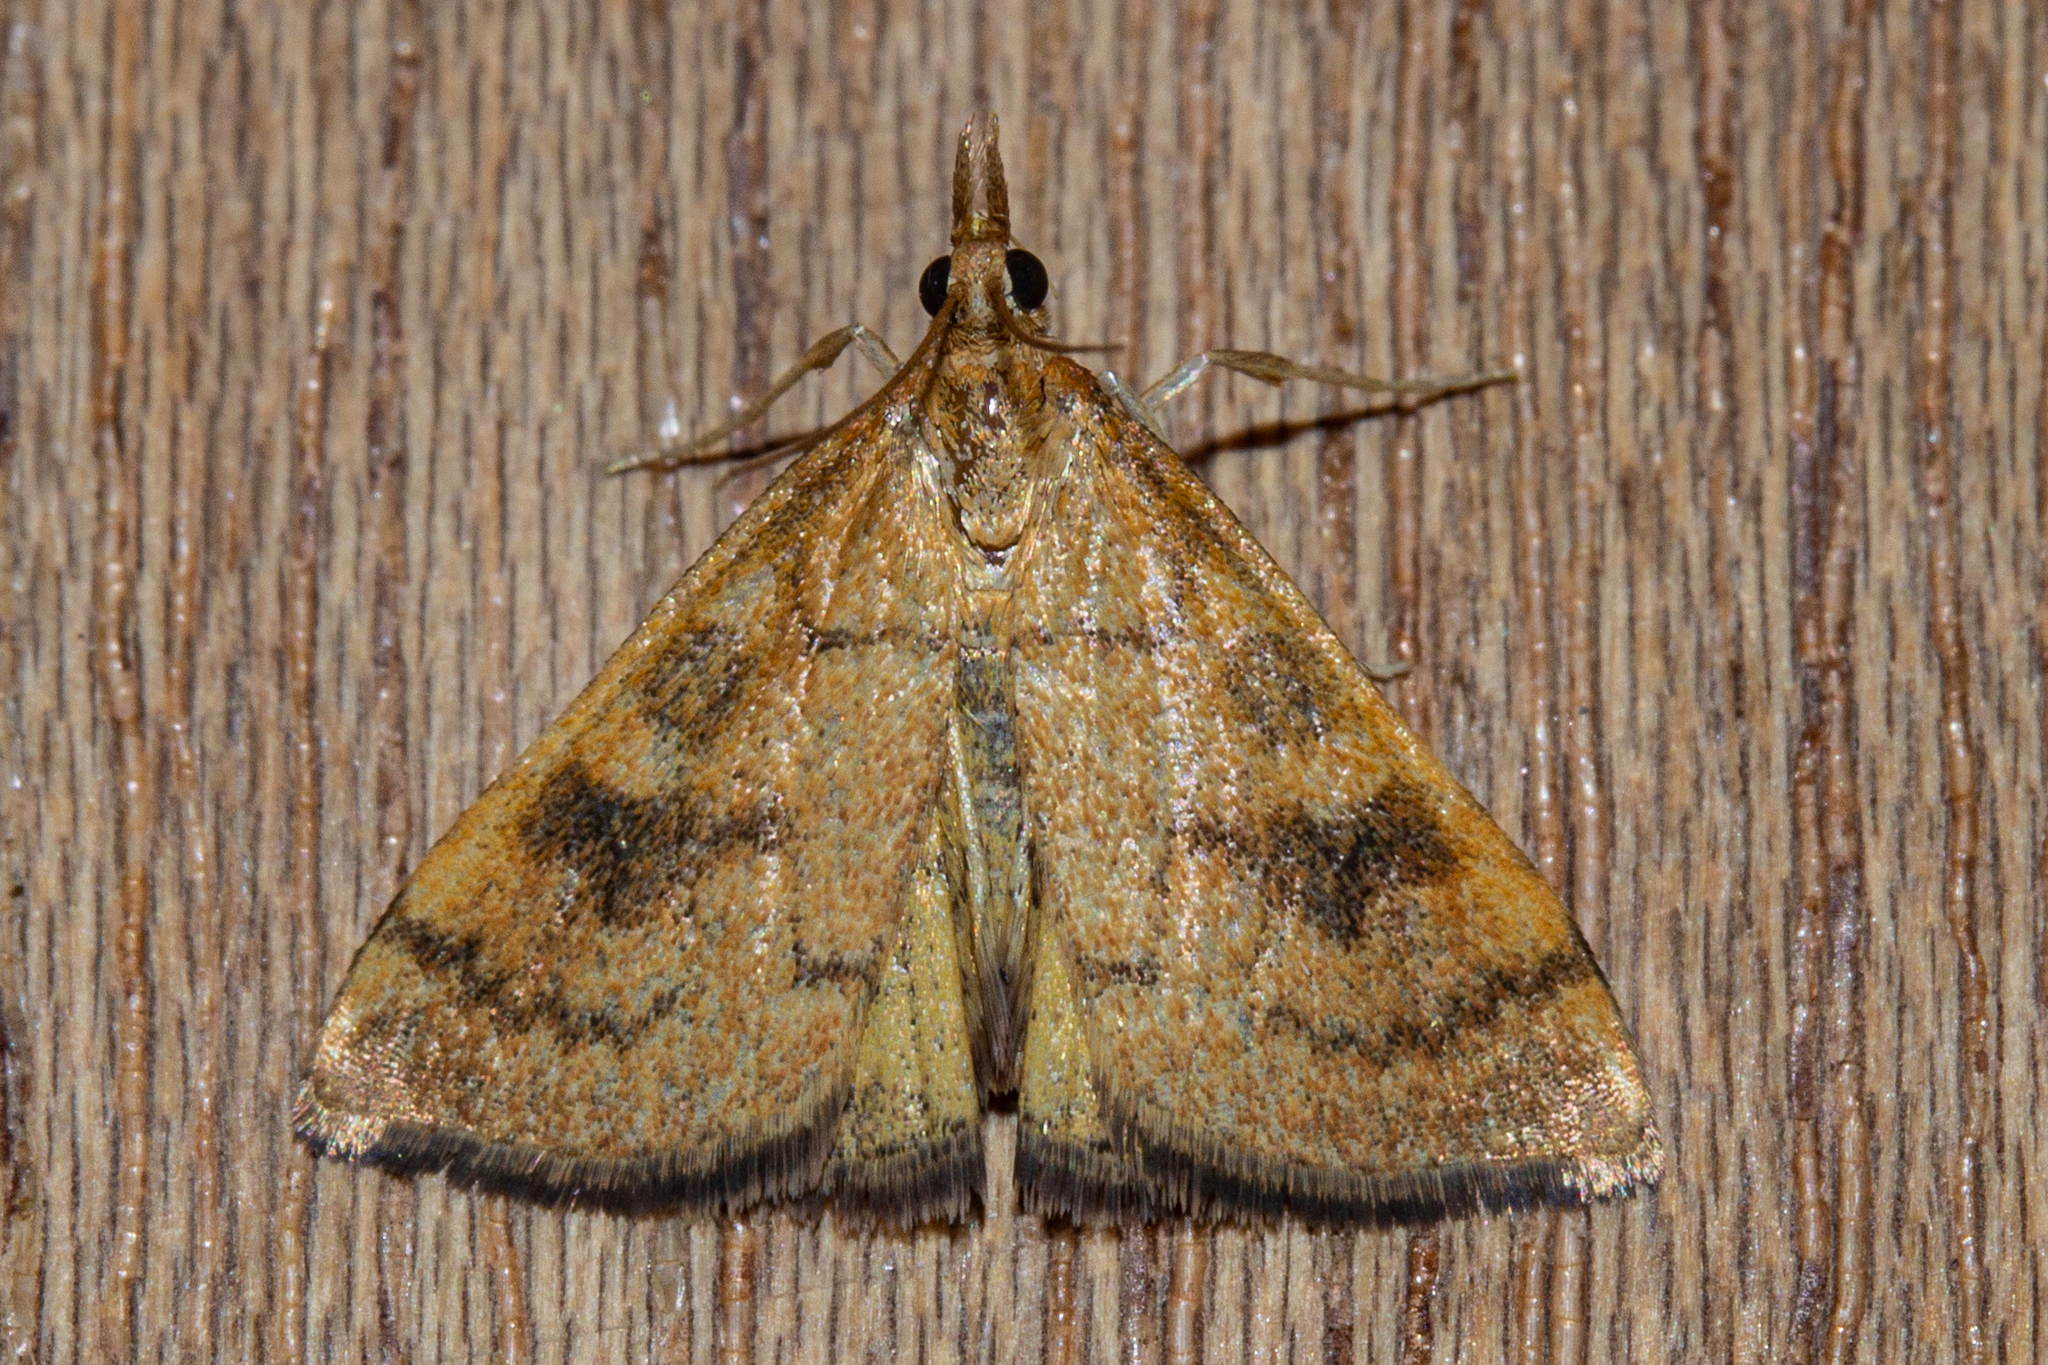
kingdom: Animalia
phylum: Arthropoda
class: Insecta
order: Lepidoptera
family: Crambidae
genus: Udea
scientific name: Udea Mnesictena flavidalis
